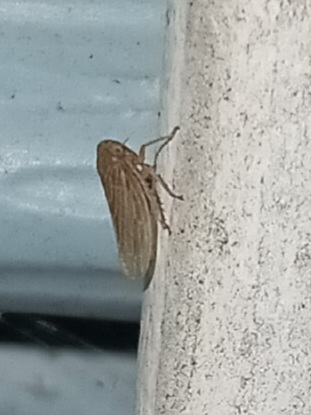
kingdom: Animalia
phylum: Arthropoda
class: Insecta
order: Hemiptera
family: Cicadellidae
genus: Agallia
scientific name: Agallia constricta
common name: The constricted leafhopper
